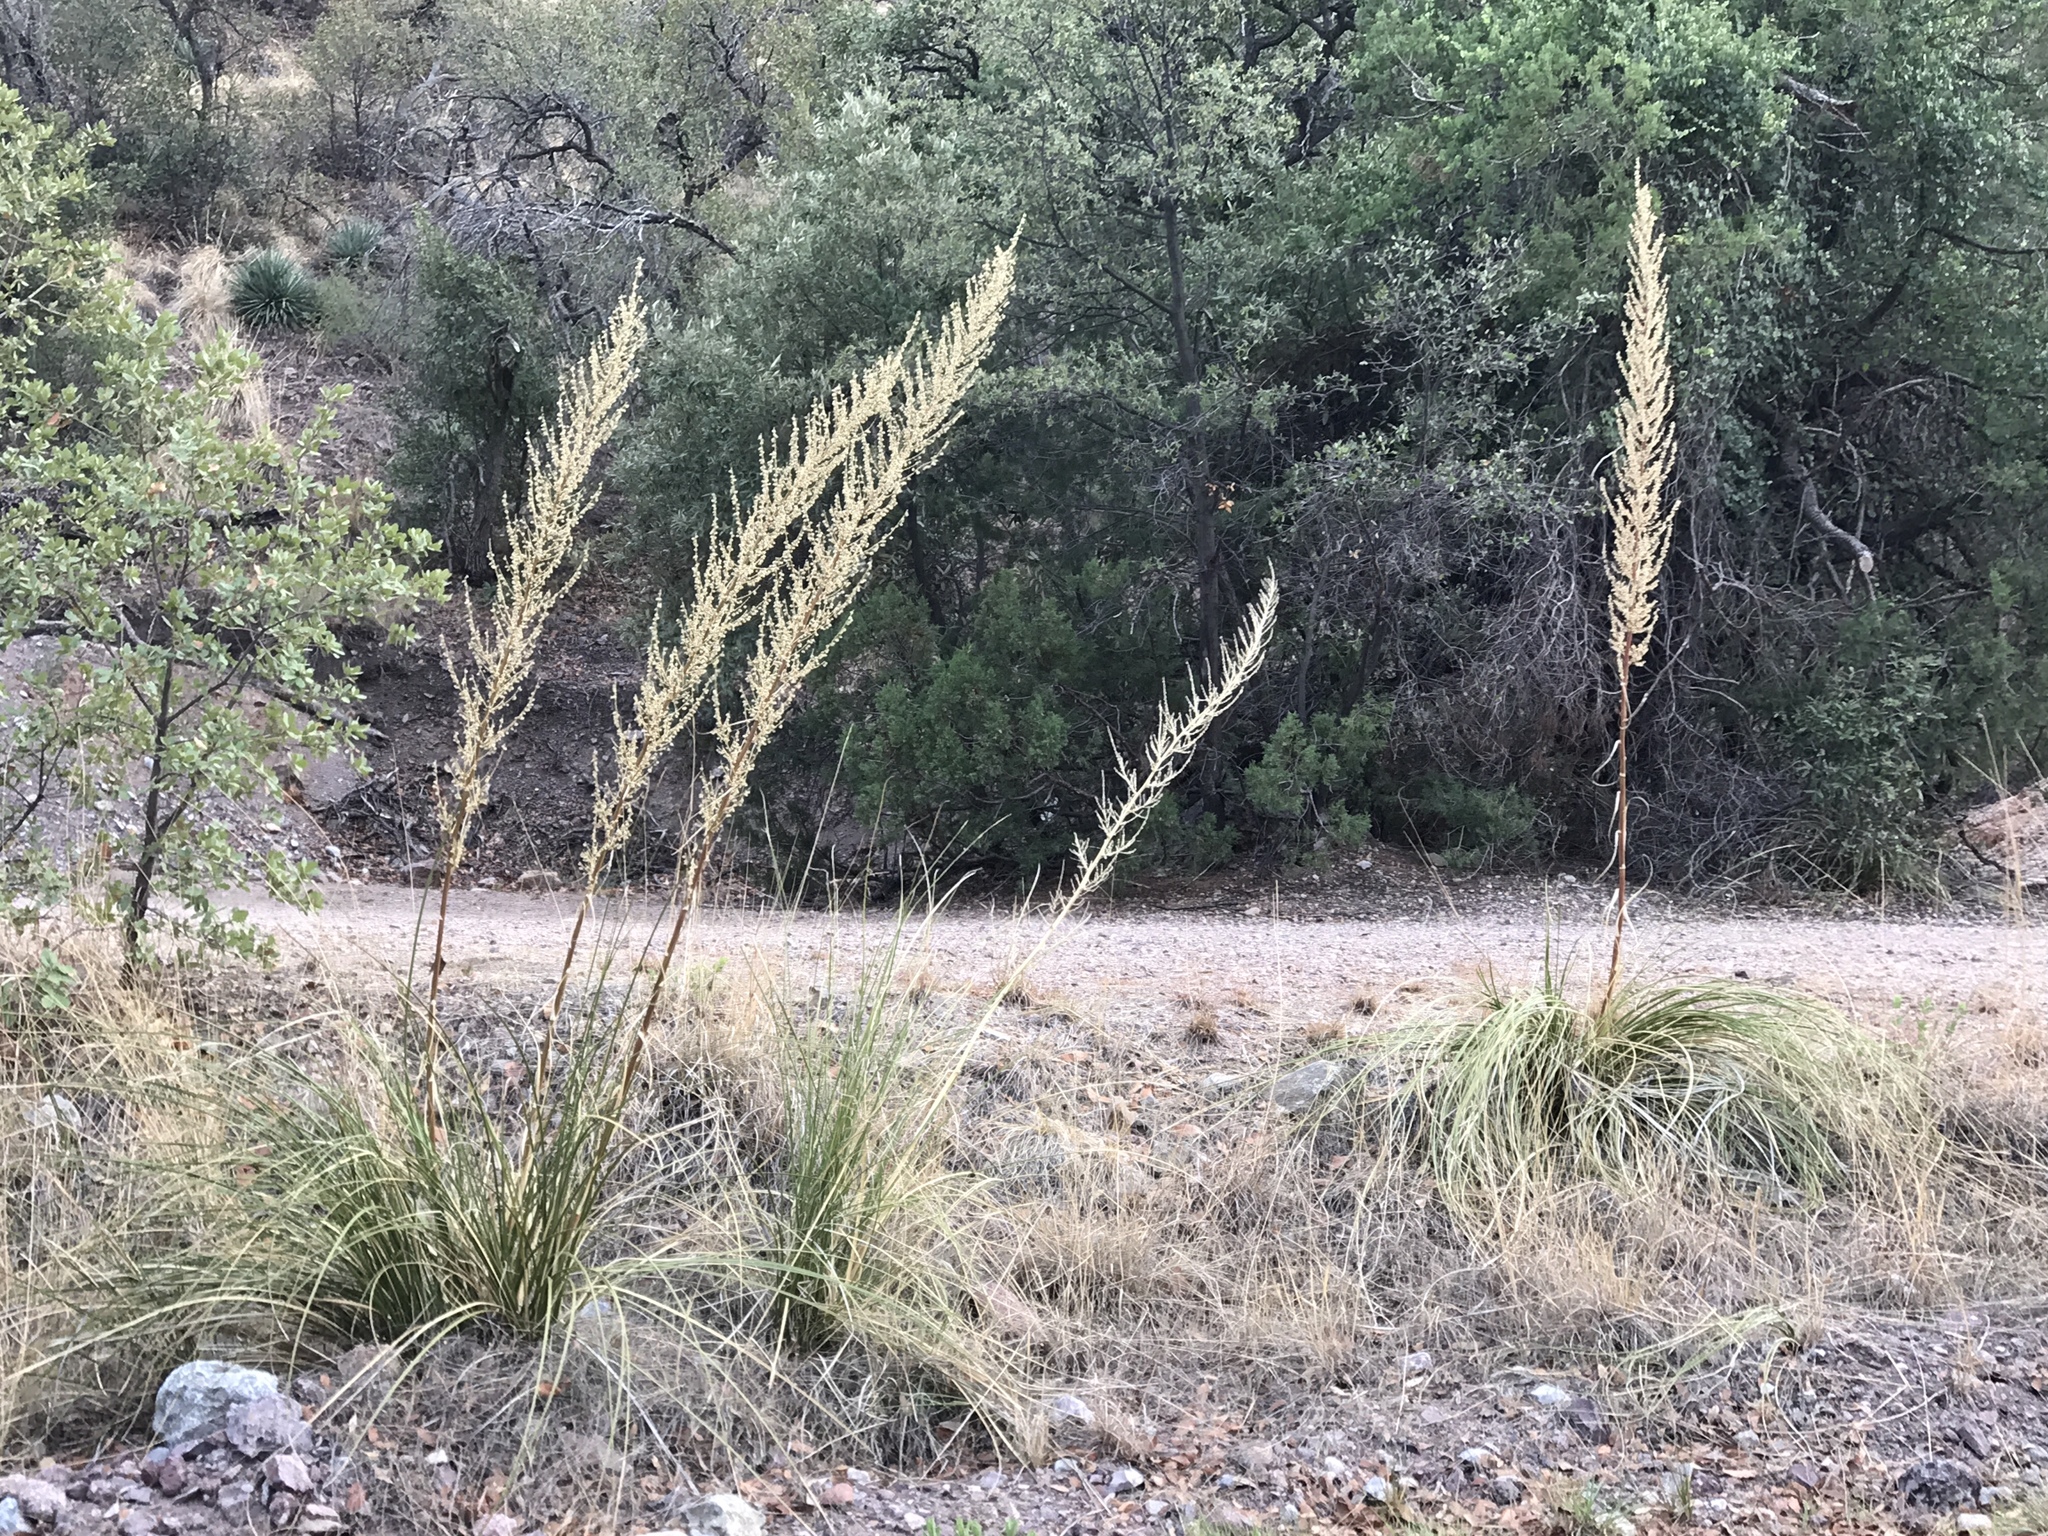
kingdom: Plantae
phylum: Tracheophyta
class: Liliopsida
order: Asparagales
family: Asparagaceae
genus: Nolina
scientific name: Nolina microcarpa
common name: Bear-grass
